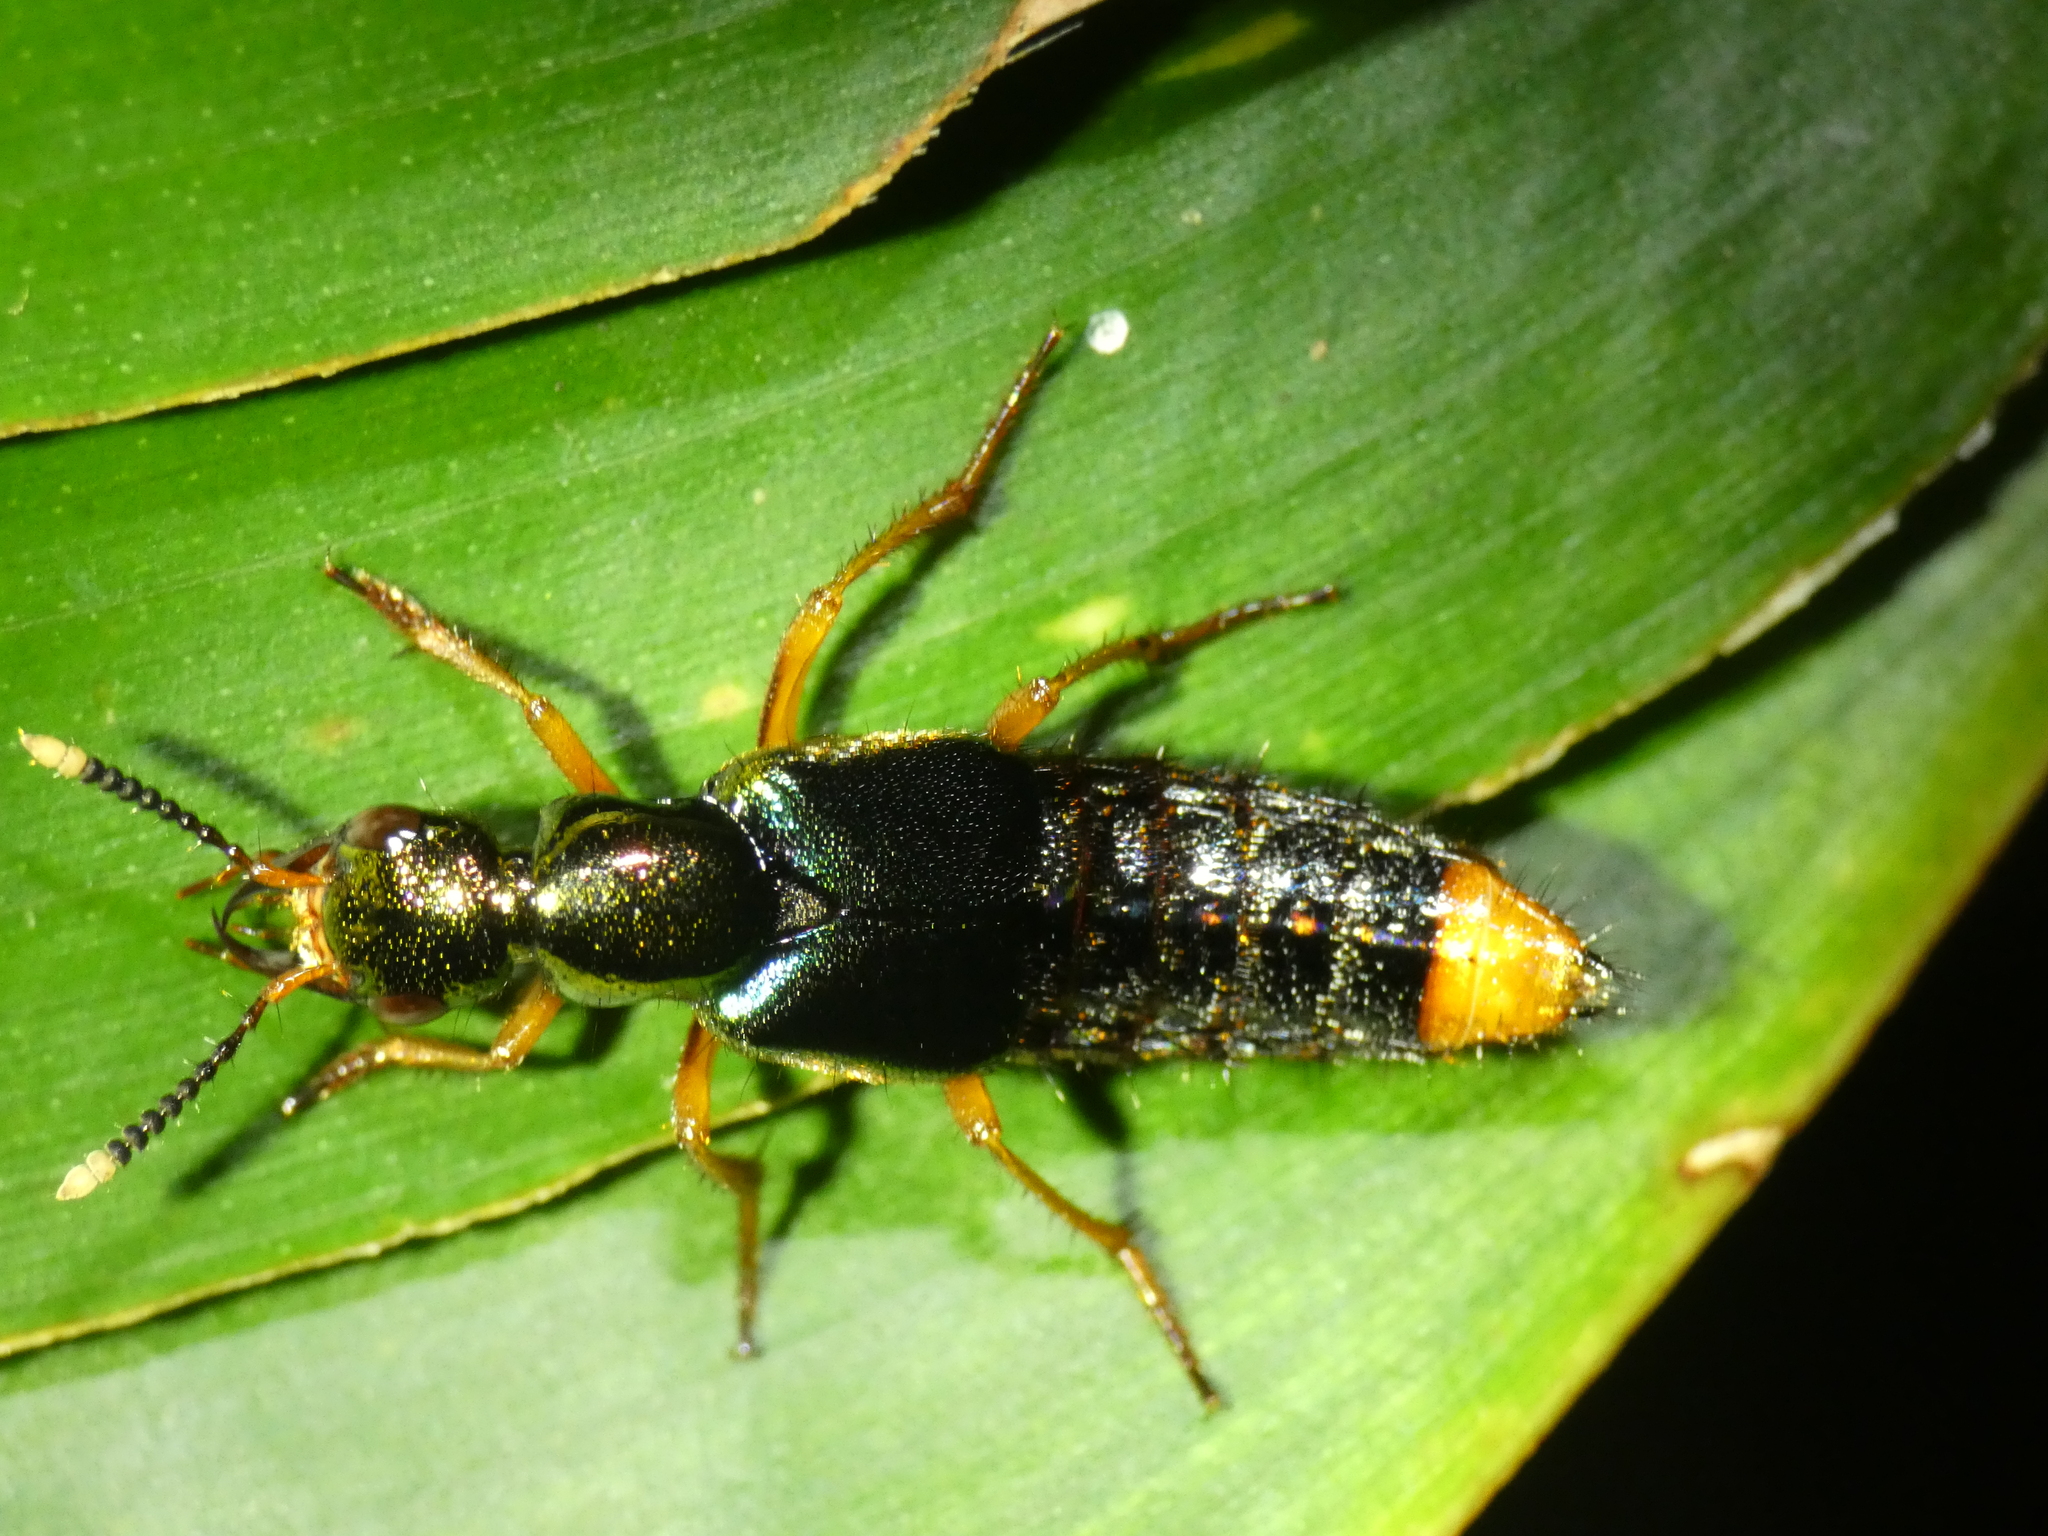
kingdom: Animalia
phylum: Arthropoda
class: Insecta
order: Coleoptera
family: Staphylinidae
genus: Actinus
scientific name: Actinus macleayi
